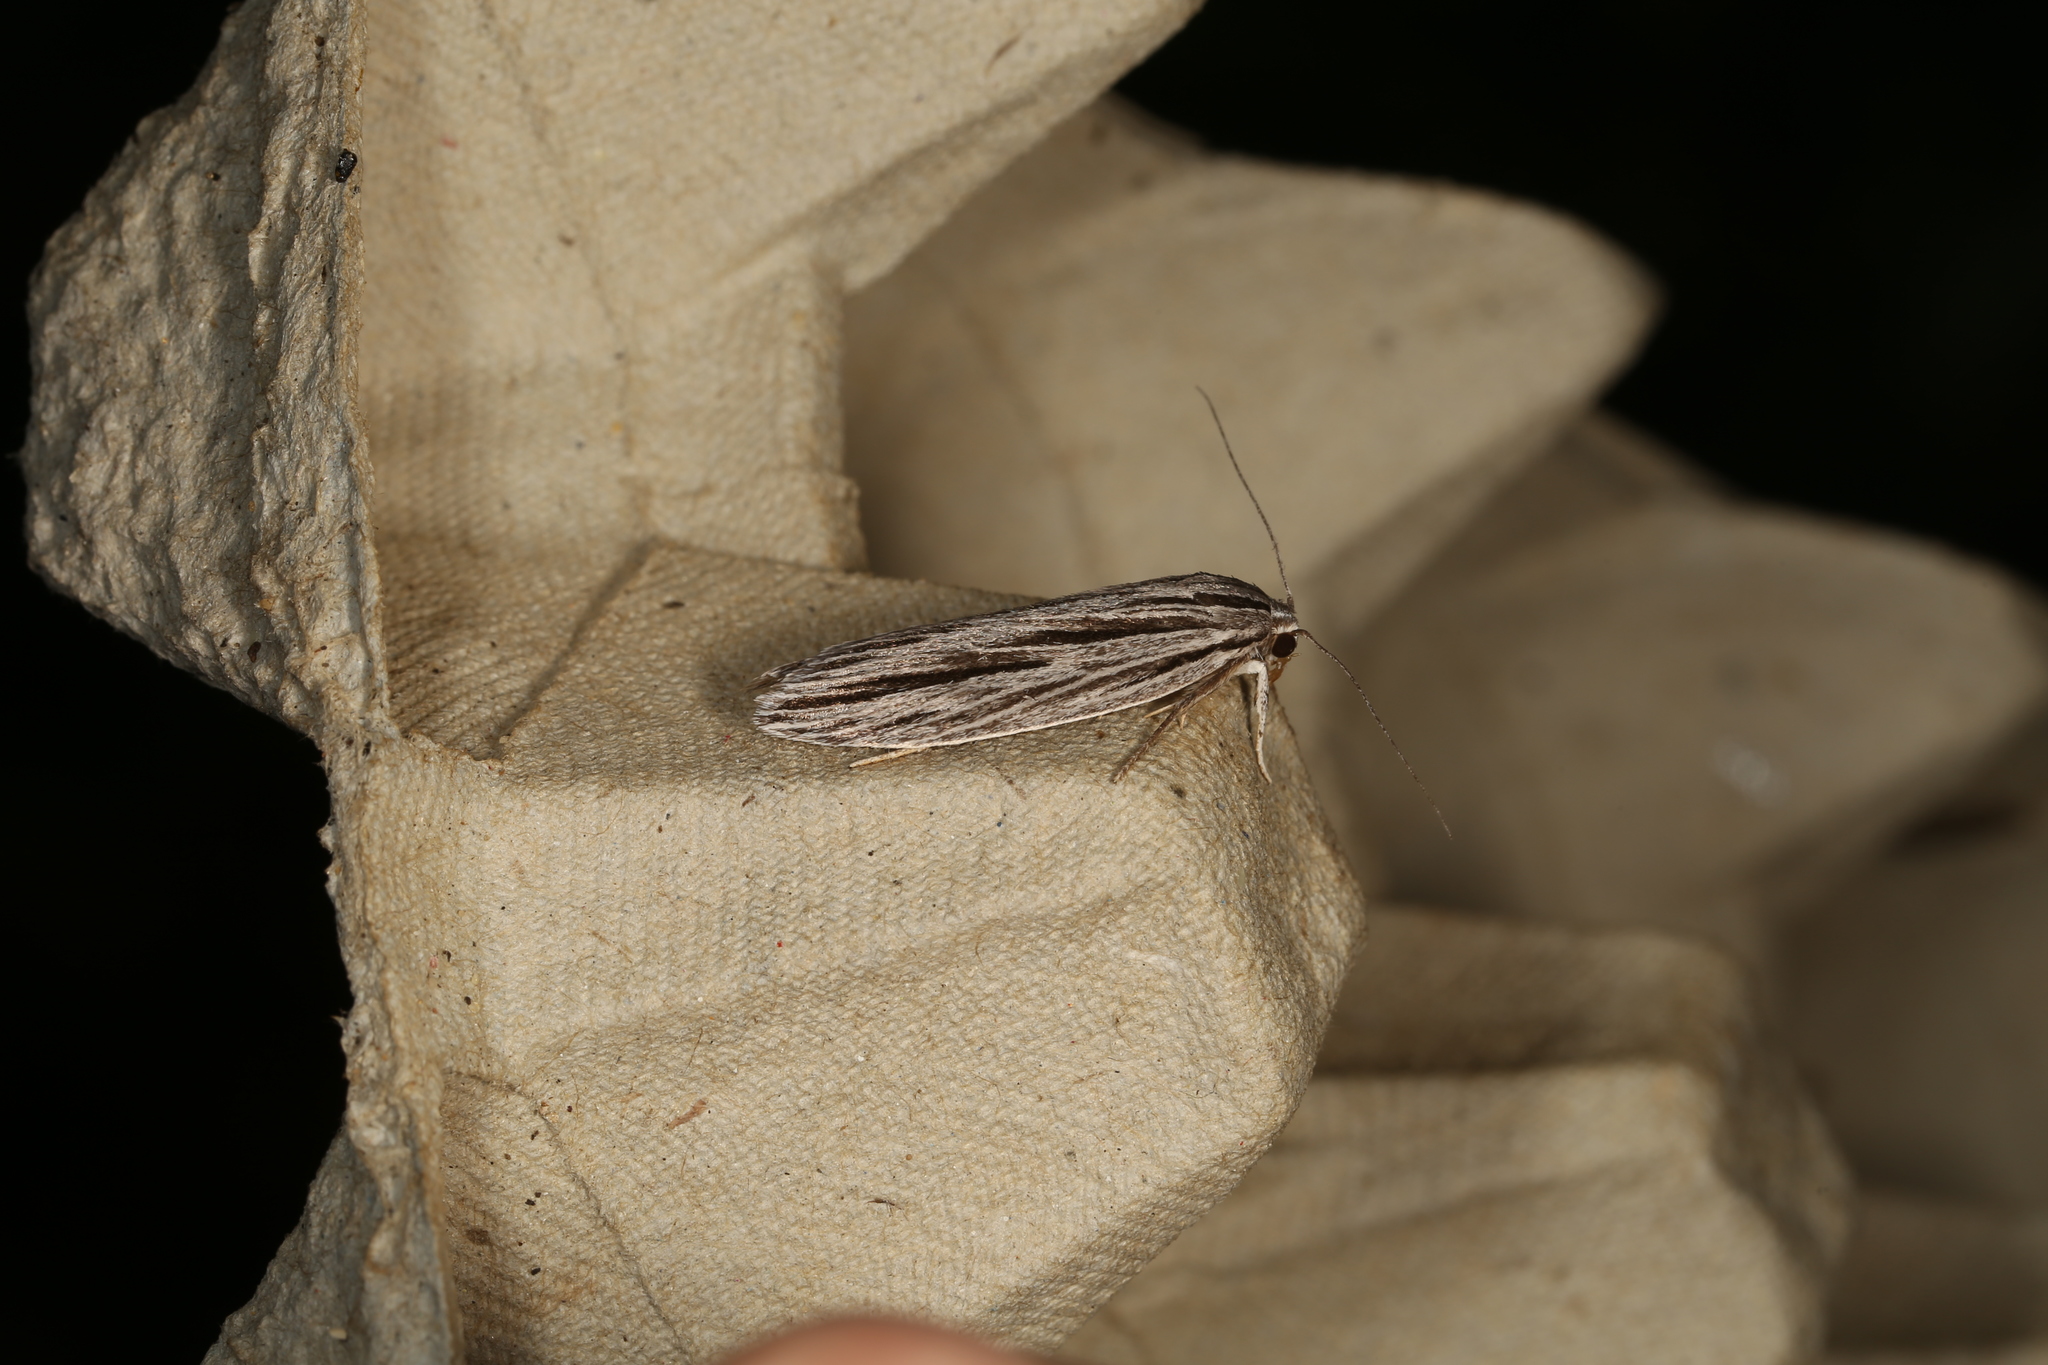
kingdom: Animalia
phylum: Arthropoda
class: Insecta
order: Lepidoptera
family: Xyloryctidae
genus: Leistarcha
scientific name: Leistarcha scitissimella
